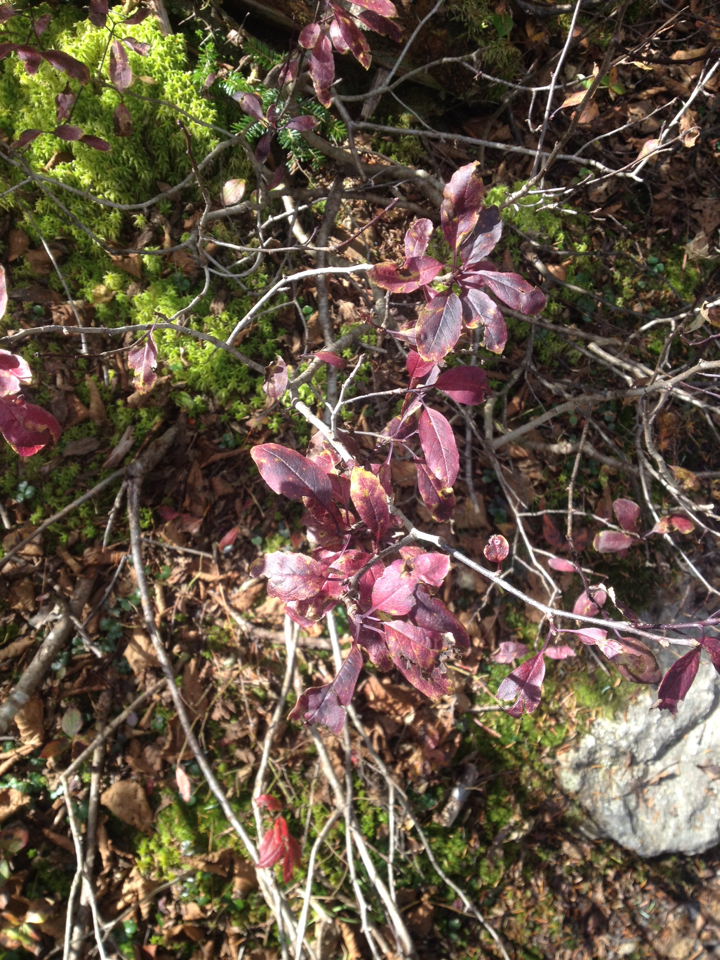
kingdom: Plantae
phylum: Tracheophyta
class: Magnoliopsida
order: Aquifoliales
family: Aquifoliaceae
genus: Ilex
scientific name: Ilex mucronata
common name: Catberry
